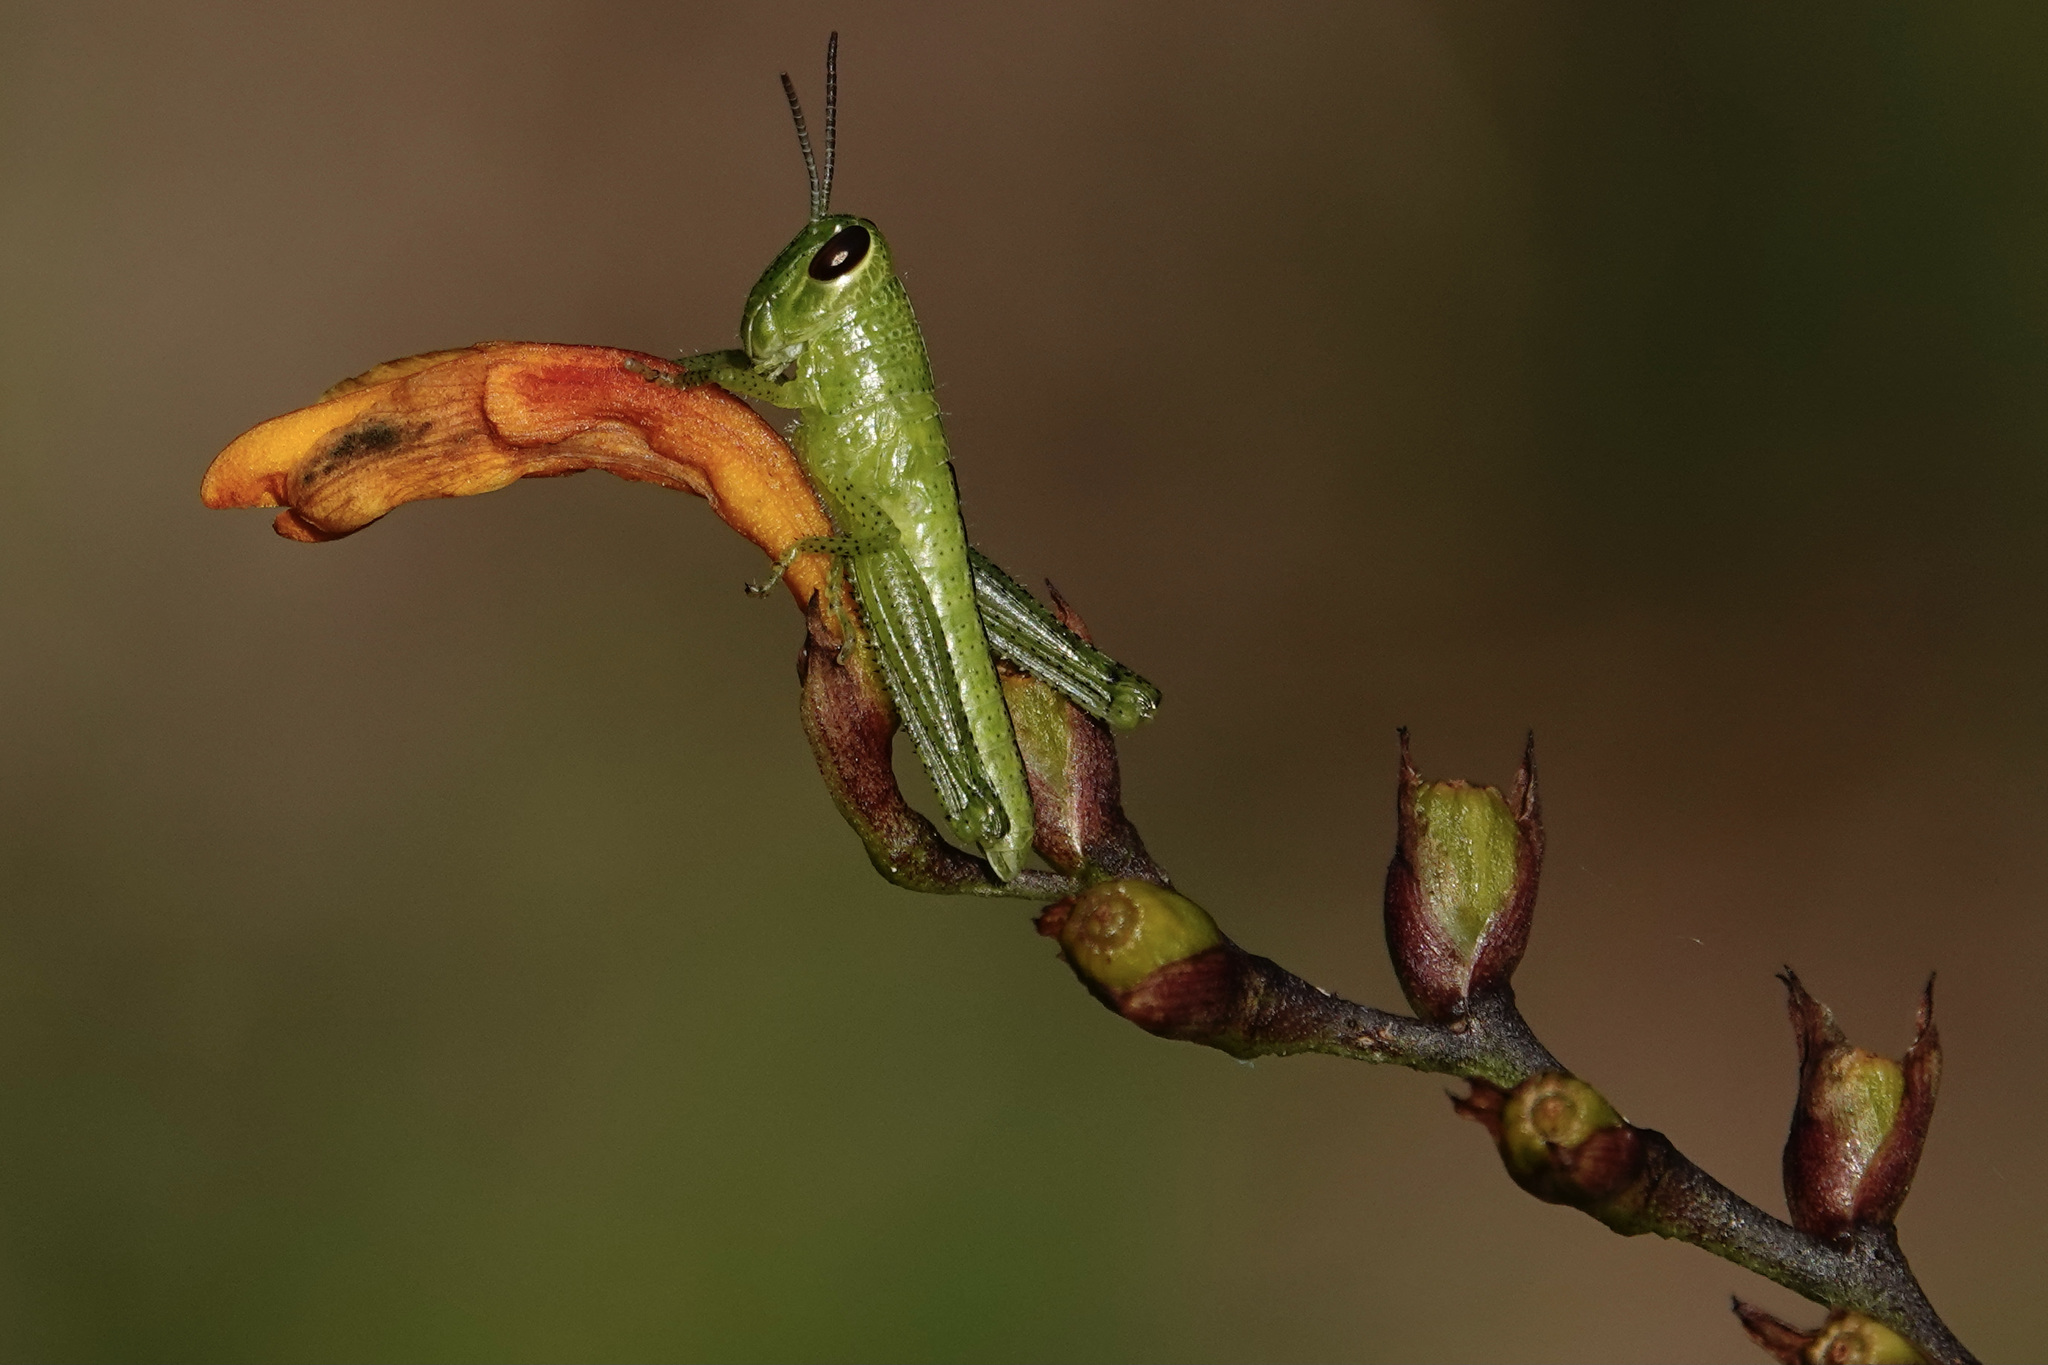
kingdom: Animalia
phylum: Arthropoda
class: Insecta
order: Orthoptera
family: Acrididae
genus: Schistocerca
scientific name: Schistocerca americana
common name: American bird locust
